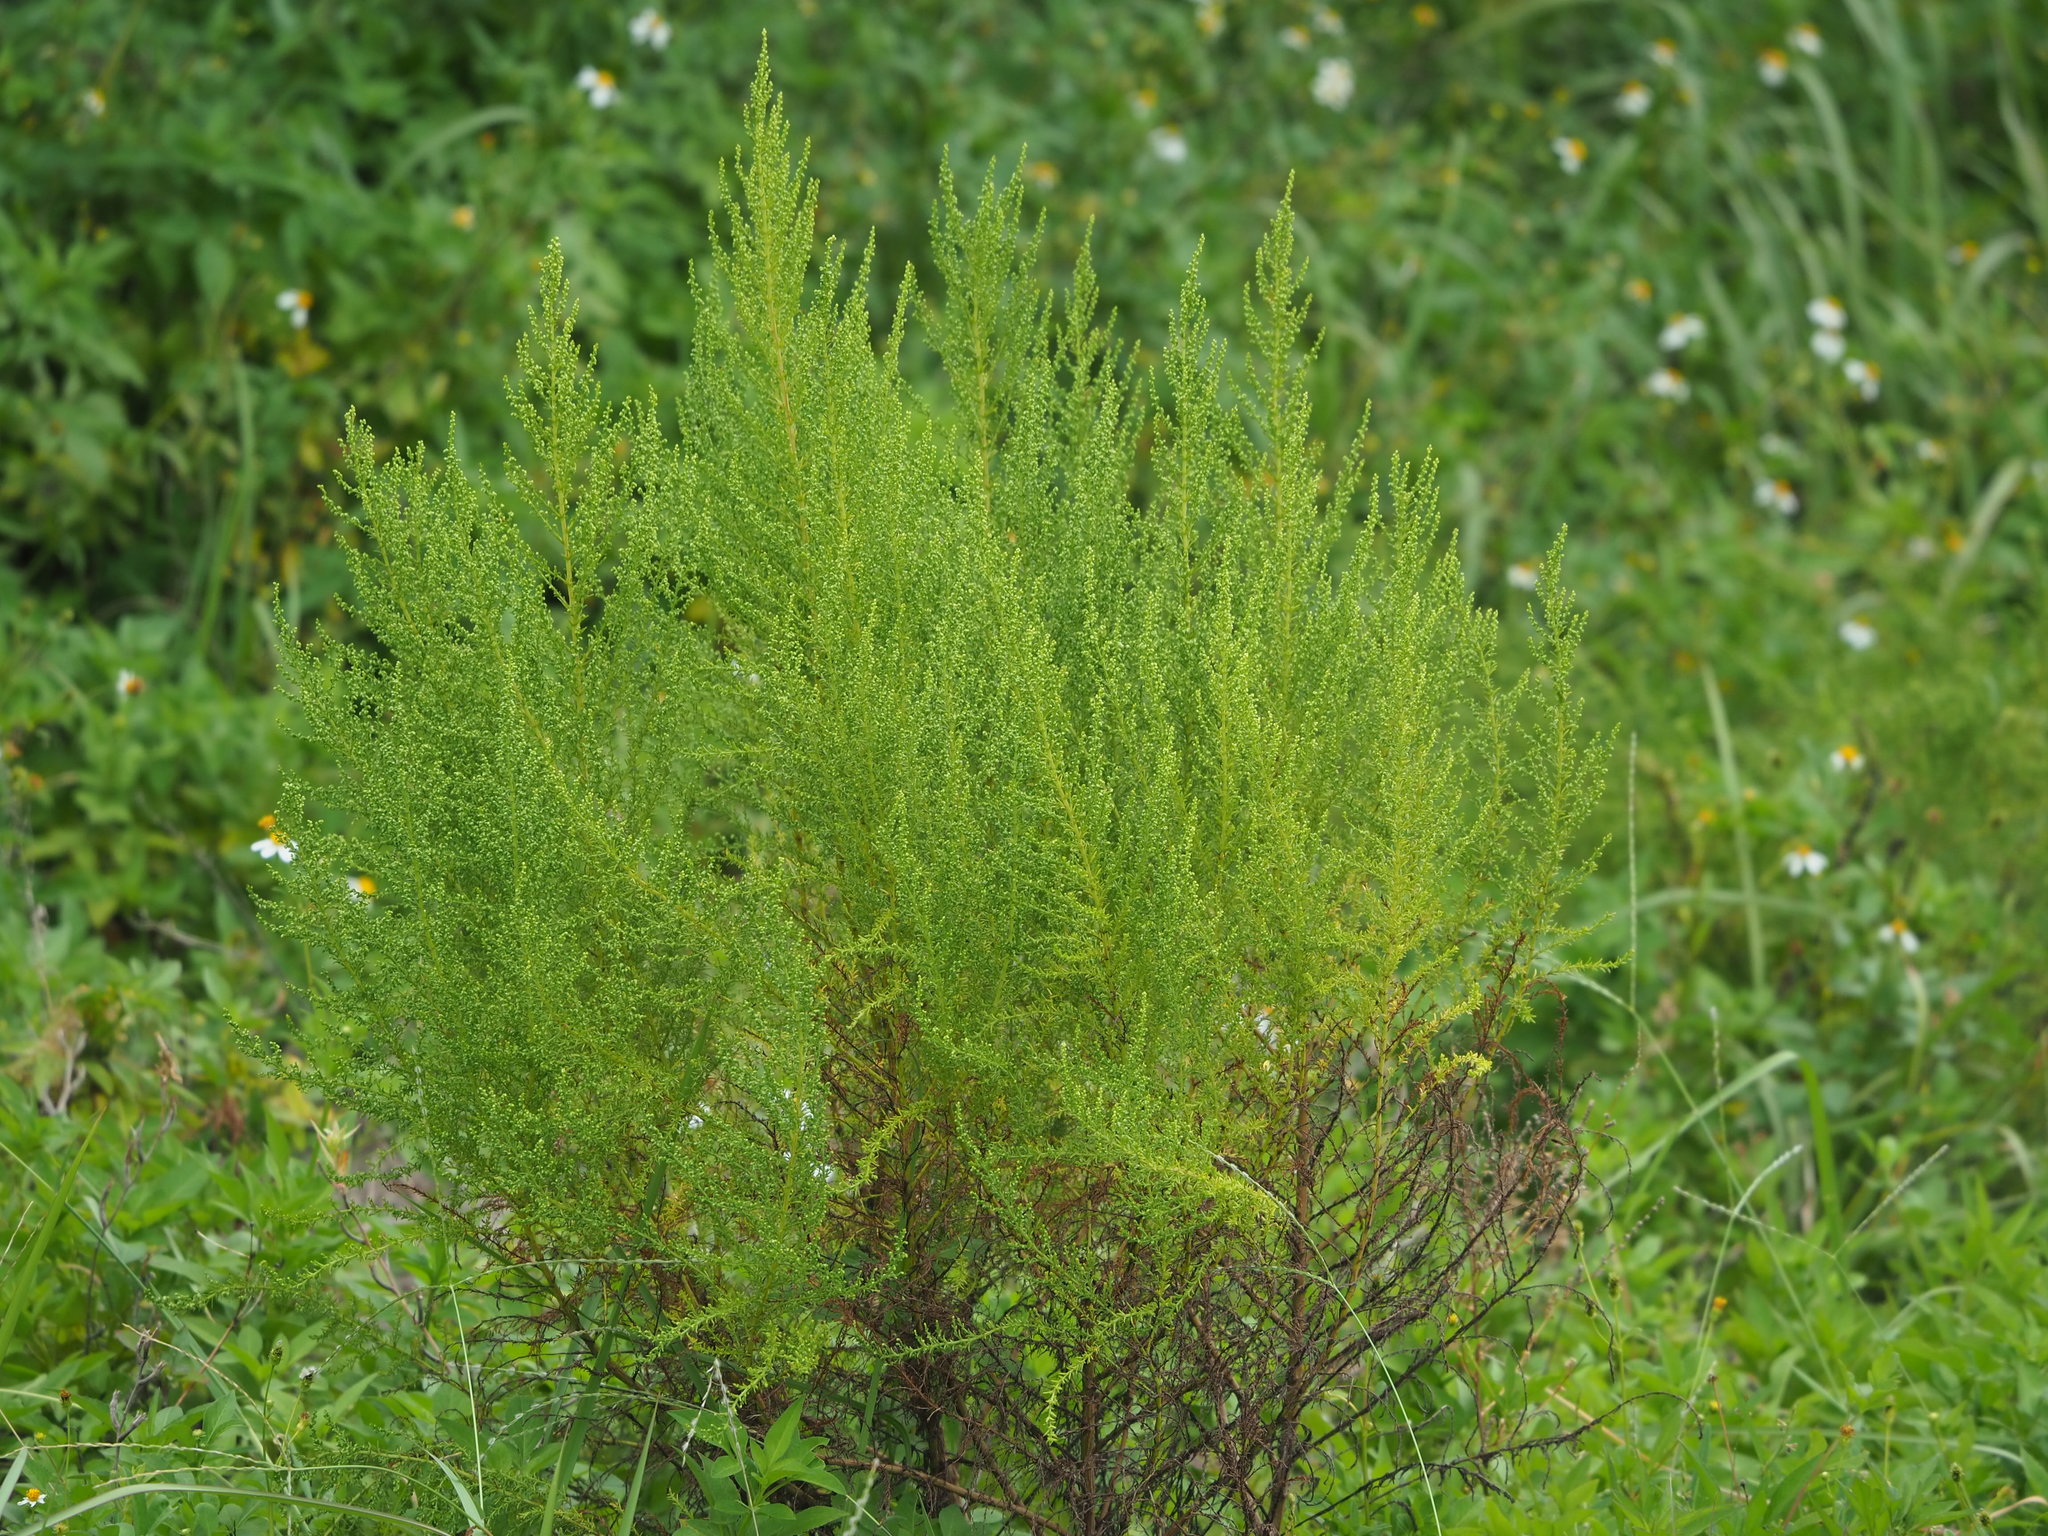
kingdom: Plantae
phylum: Tracheophyta
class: Magnoliopsida
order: Asterales
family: Asteraceae
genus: Artemisia
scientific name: Artemisia capillaris
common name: Yin-chen wormwood
